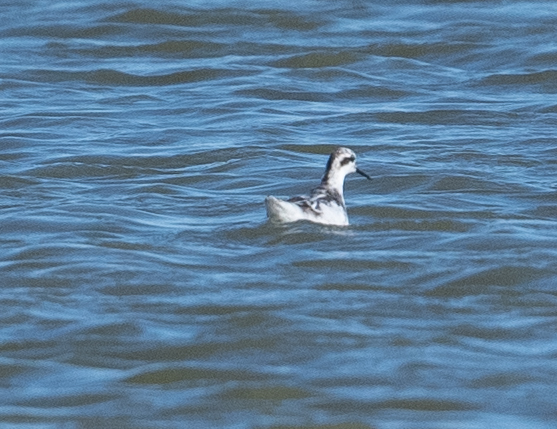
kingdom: Animalia
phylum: Chordata
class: Aves
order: Charadriiformes
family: Scolopacidae
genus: Phalaropus
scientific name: Phalaropus lobatus
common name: Red-necked phalarope
